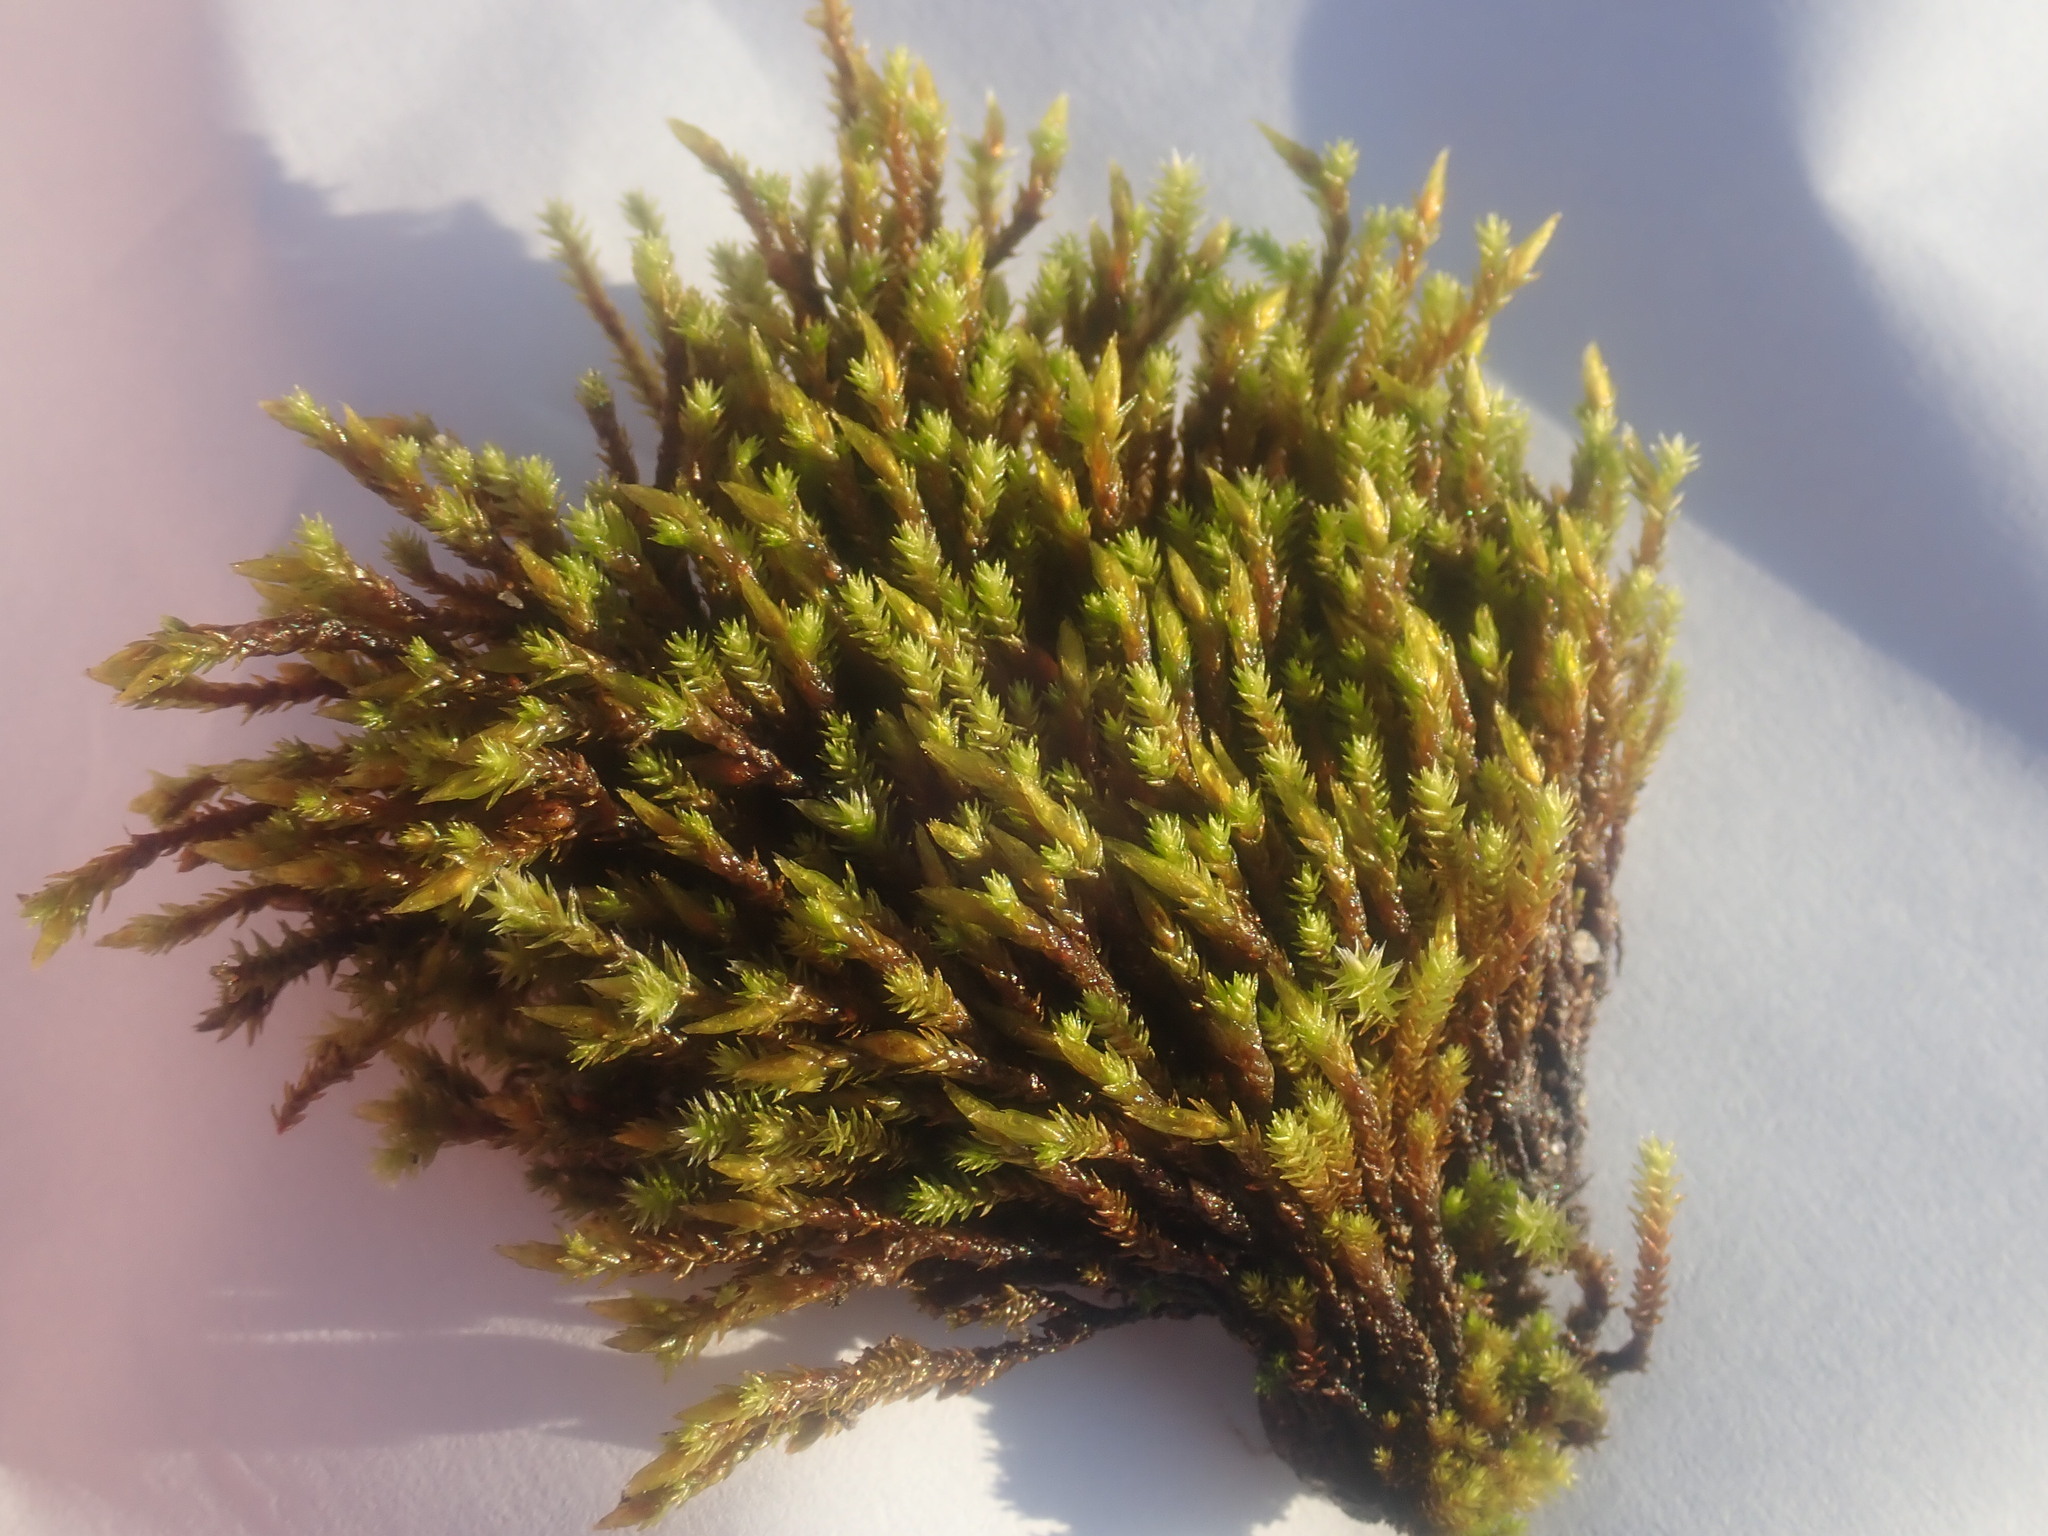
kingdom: Plantae
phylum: Bryophyta
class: Bryopsida
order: Hedwigiales
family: Hedwigiaceae
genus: Hedwigia
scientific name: Hedwigia ciliata
